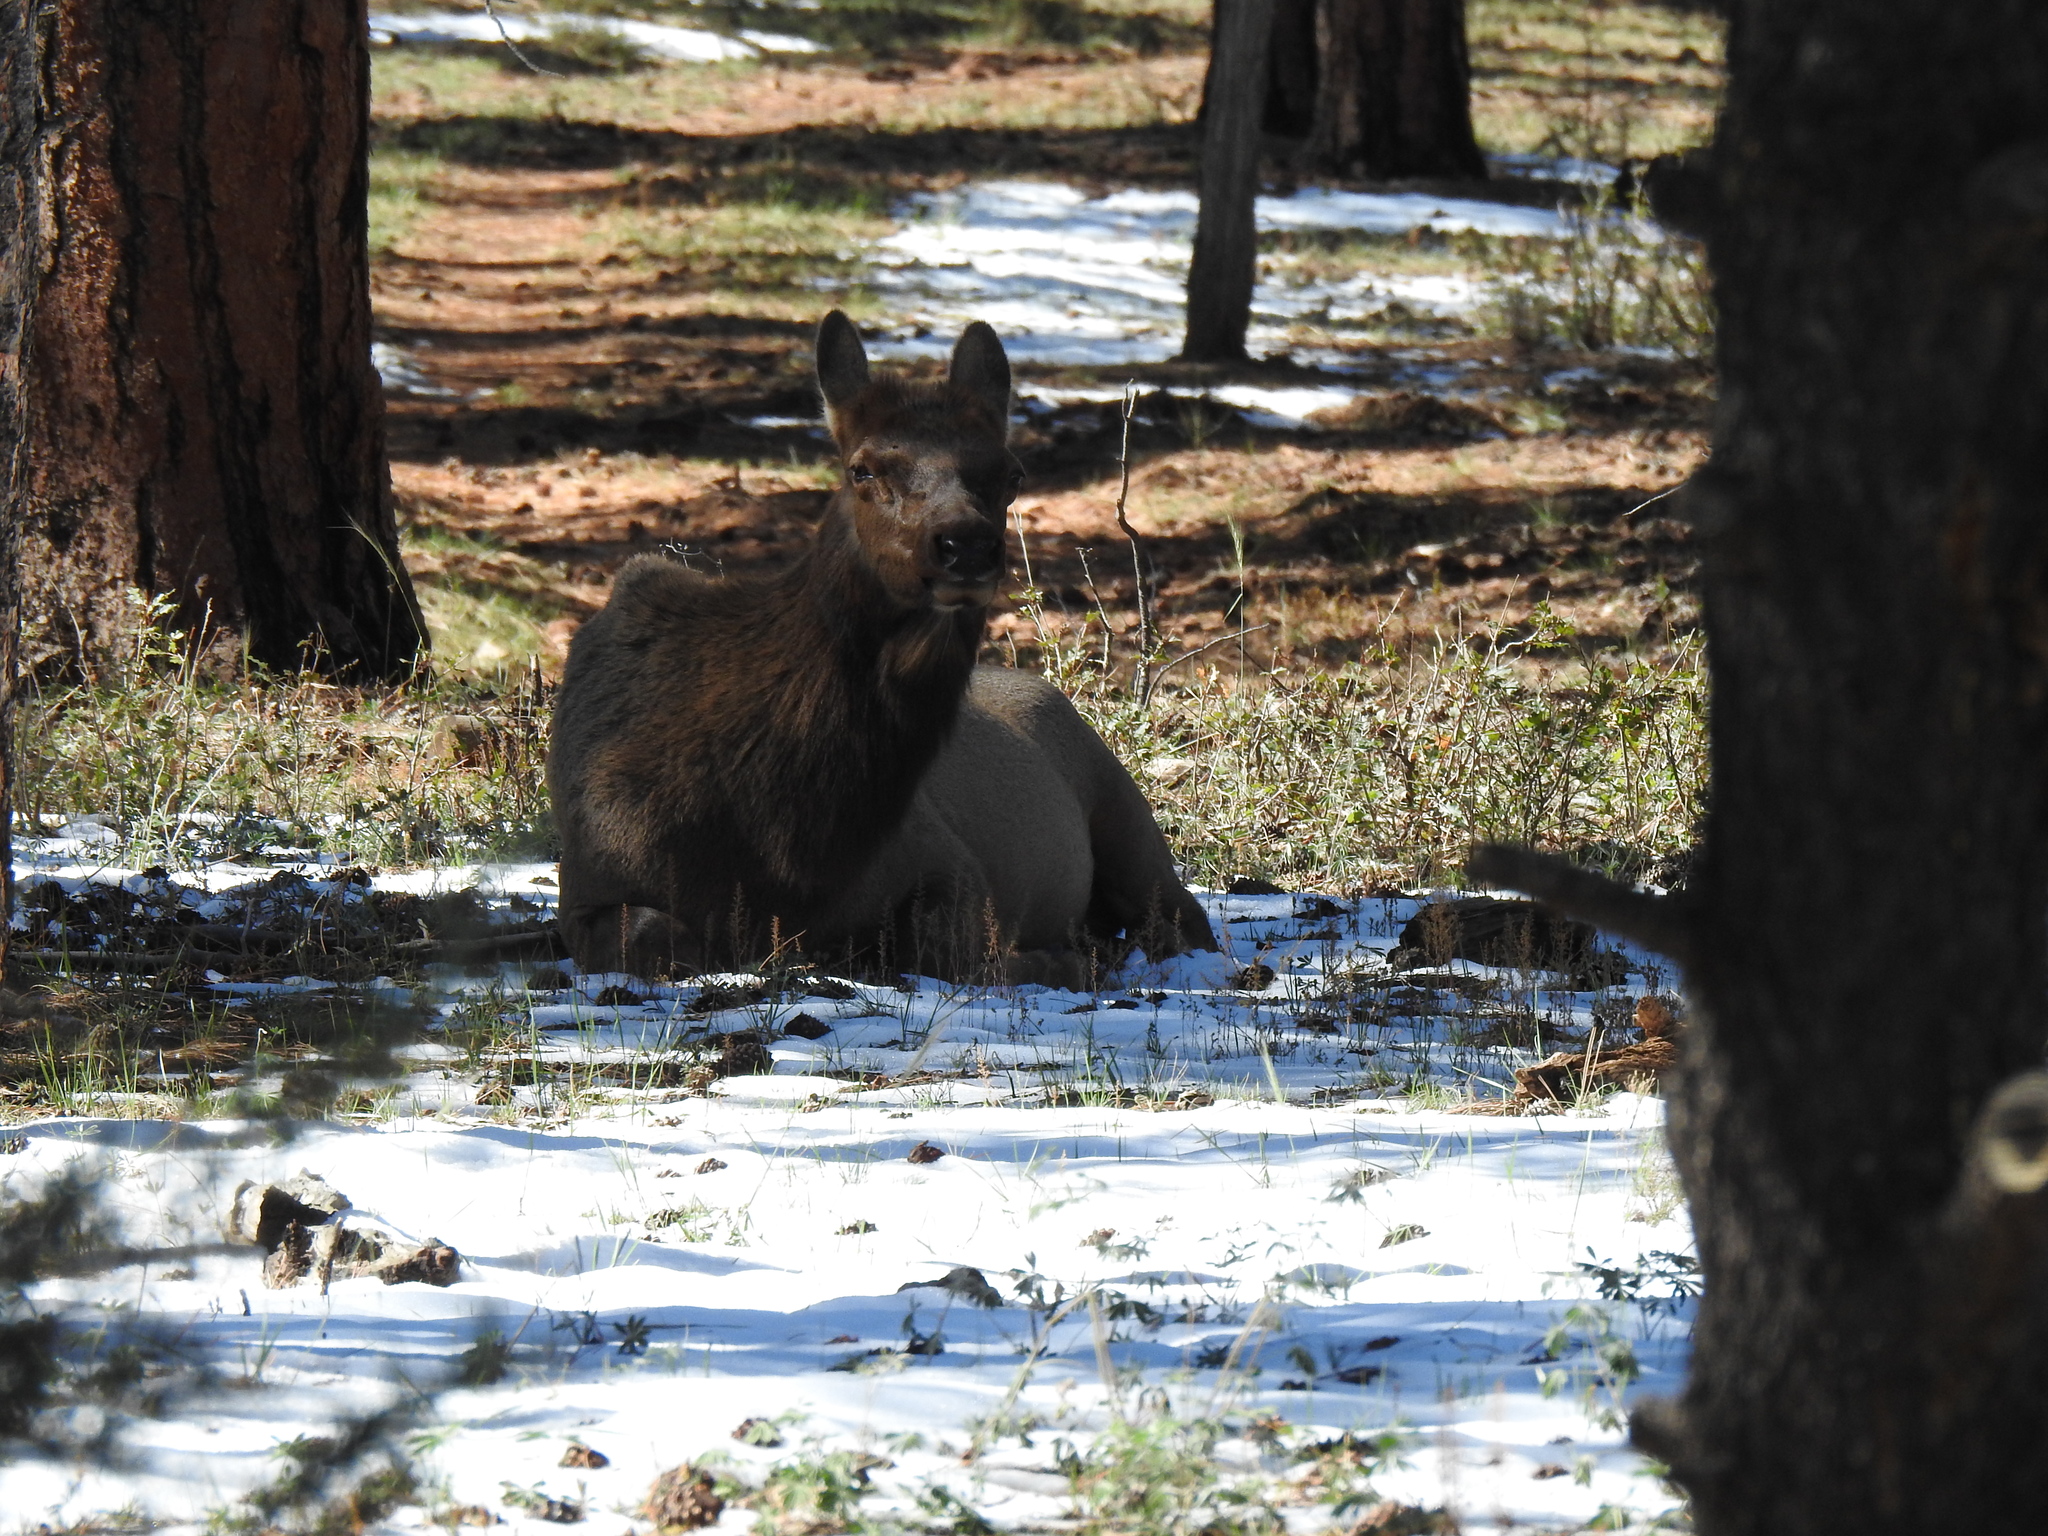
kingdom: Animalia
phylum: Chordata
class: Mammalia
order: Artiodactyla
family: Cervidae
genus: Cervus
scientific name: Cervus elaphus
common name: Red deer
